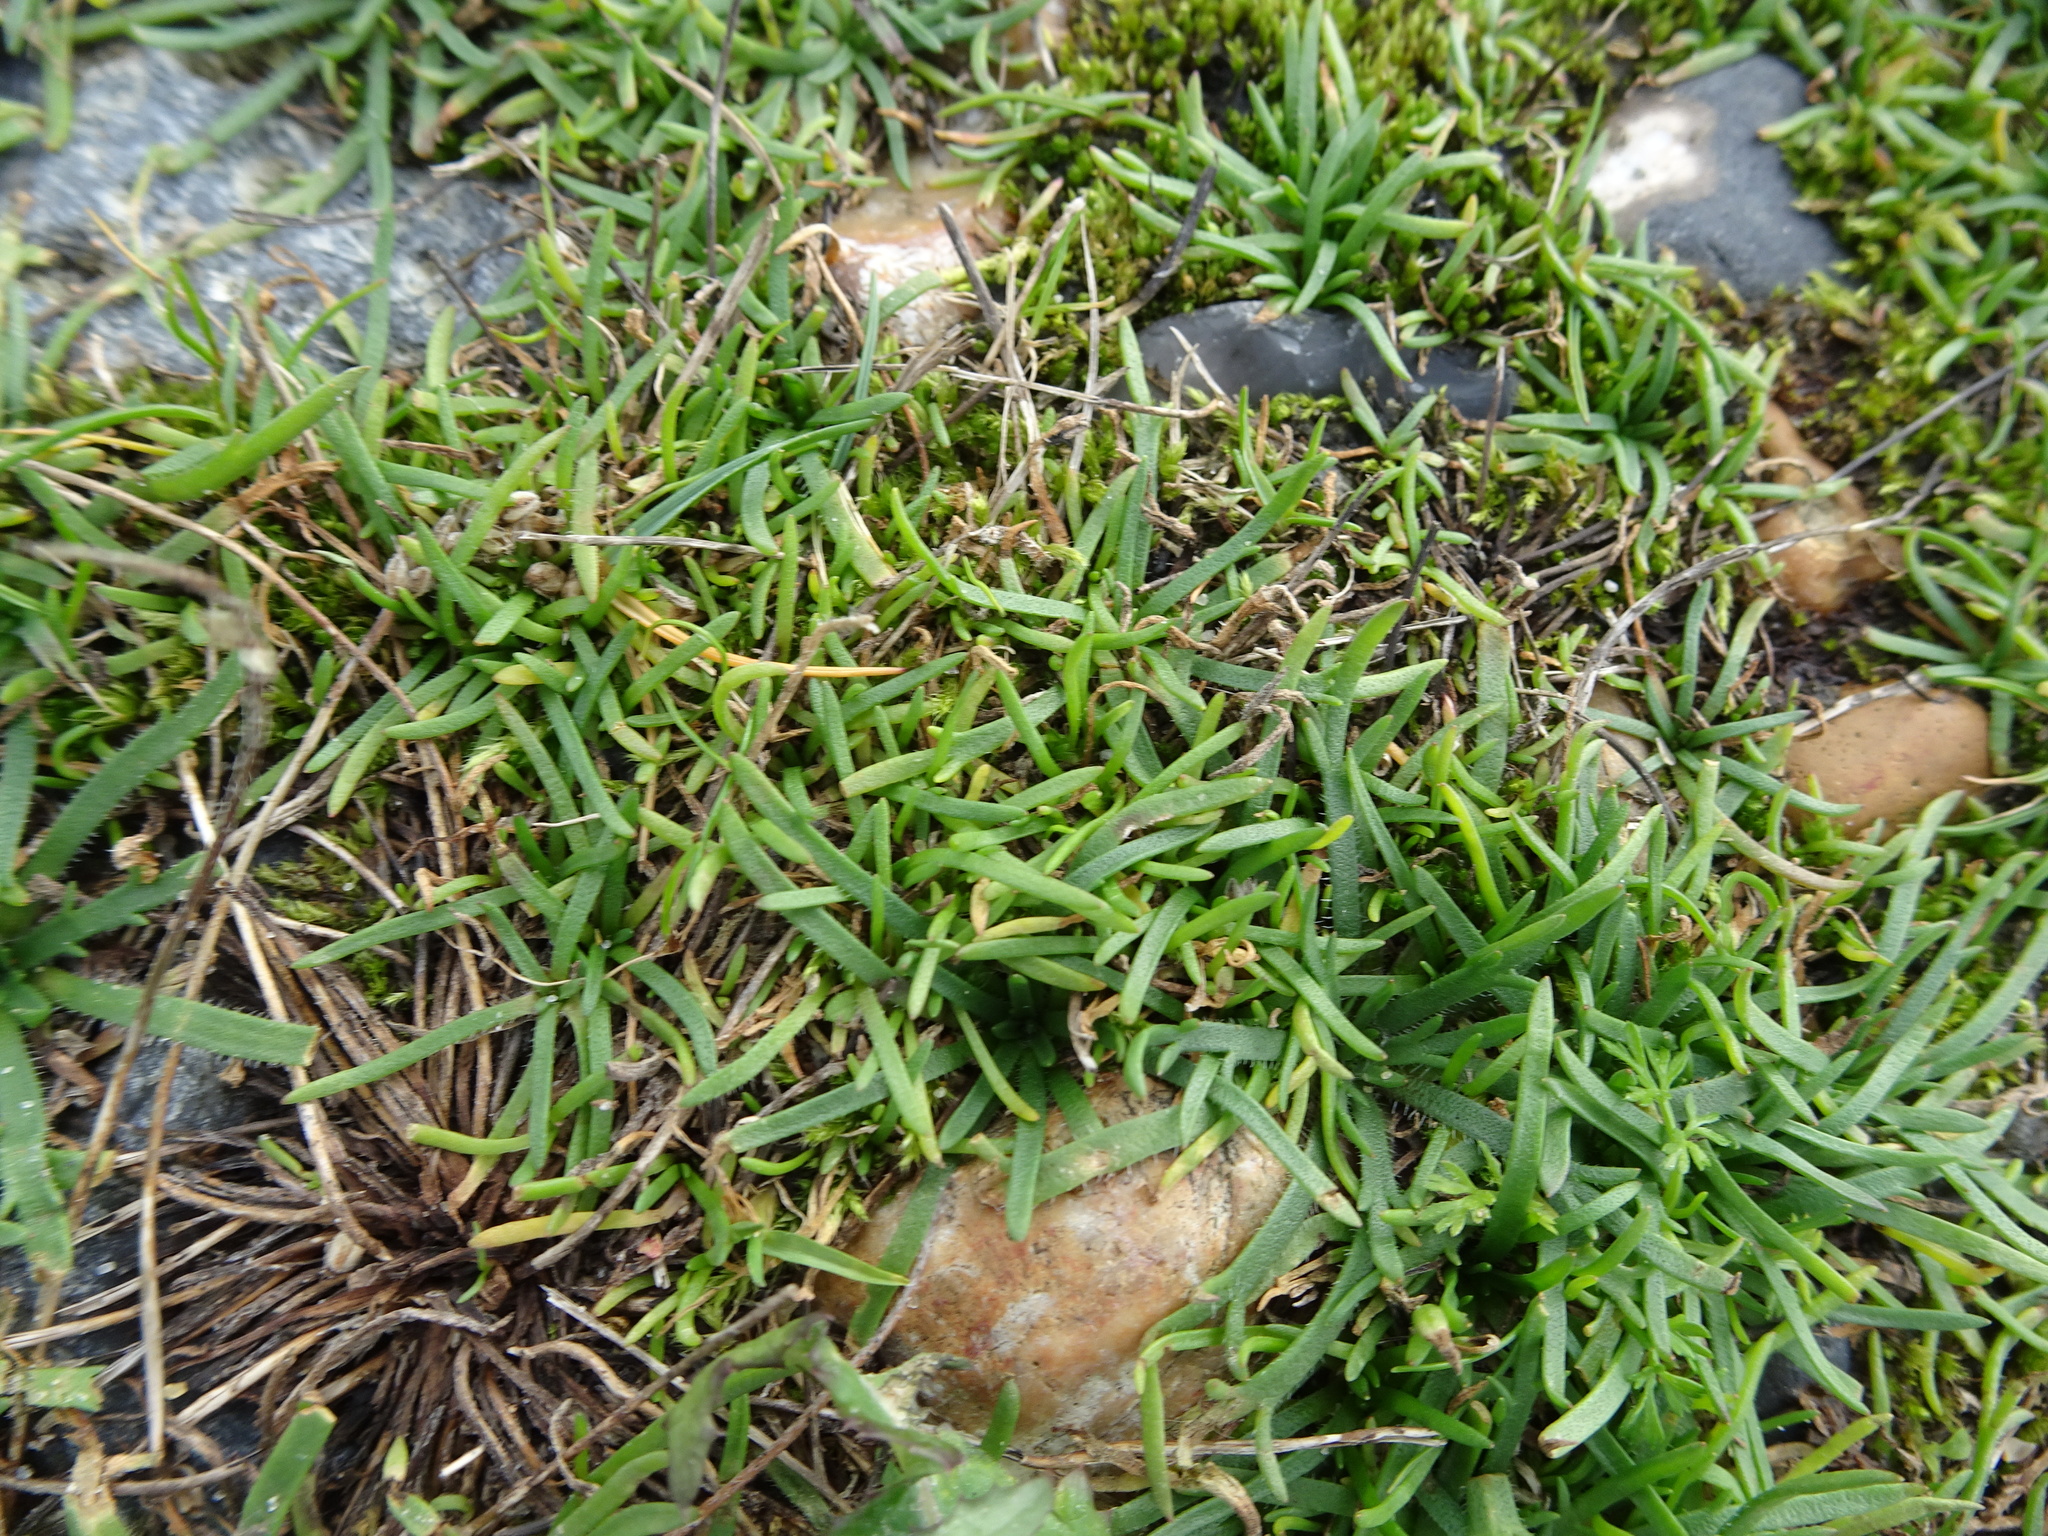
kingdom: Plantae
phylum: Tracheophyta
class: Magnoliopsida
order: Lamiales
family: Plantaginaceae
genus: Plantago
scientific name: Plantago coronopus
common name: Buck's-horn plantain
